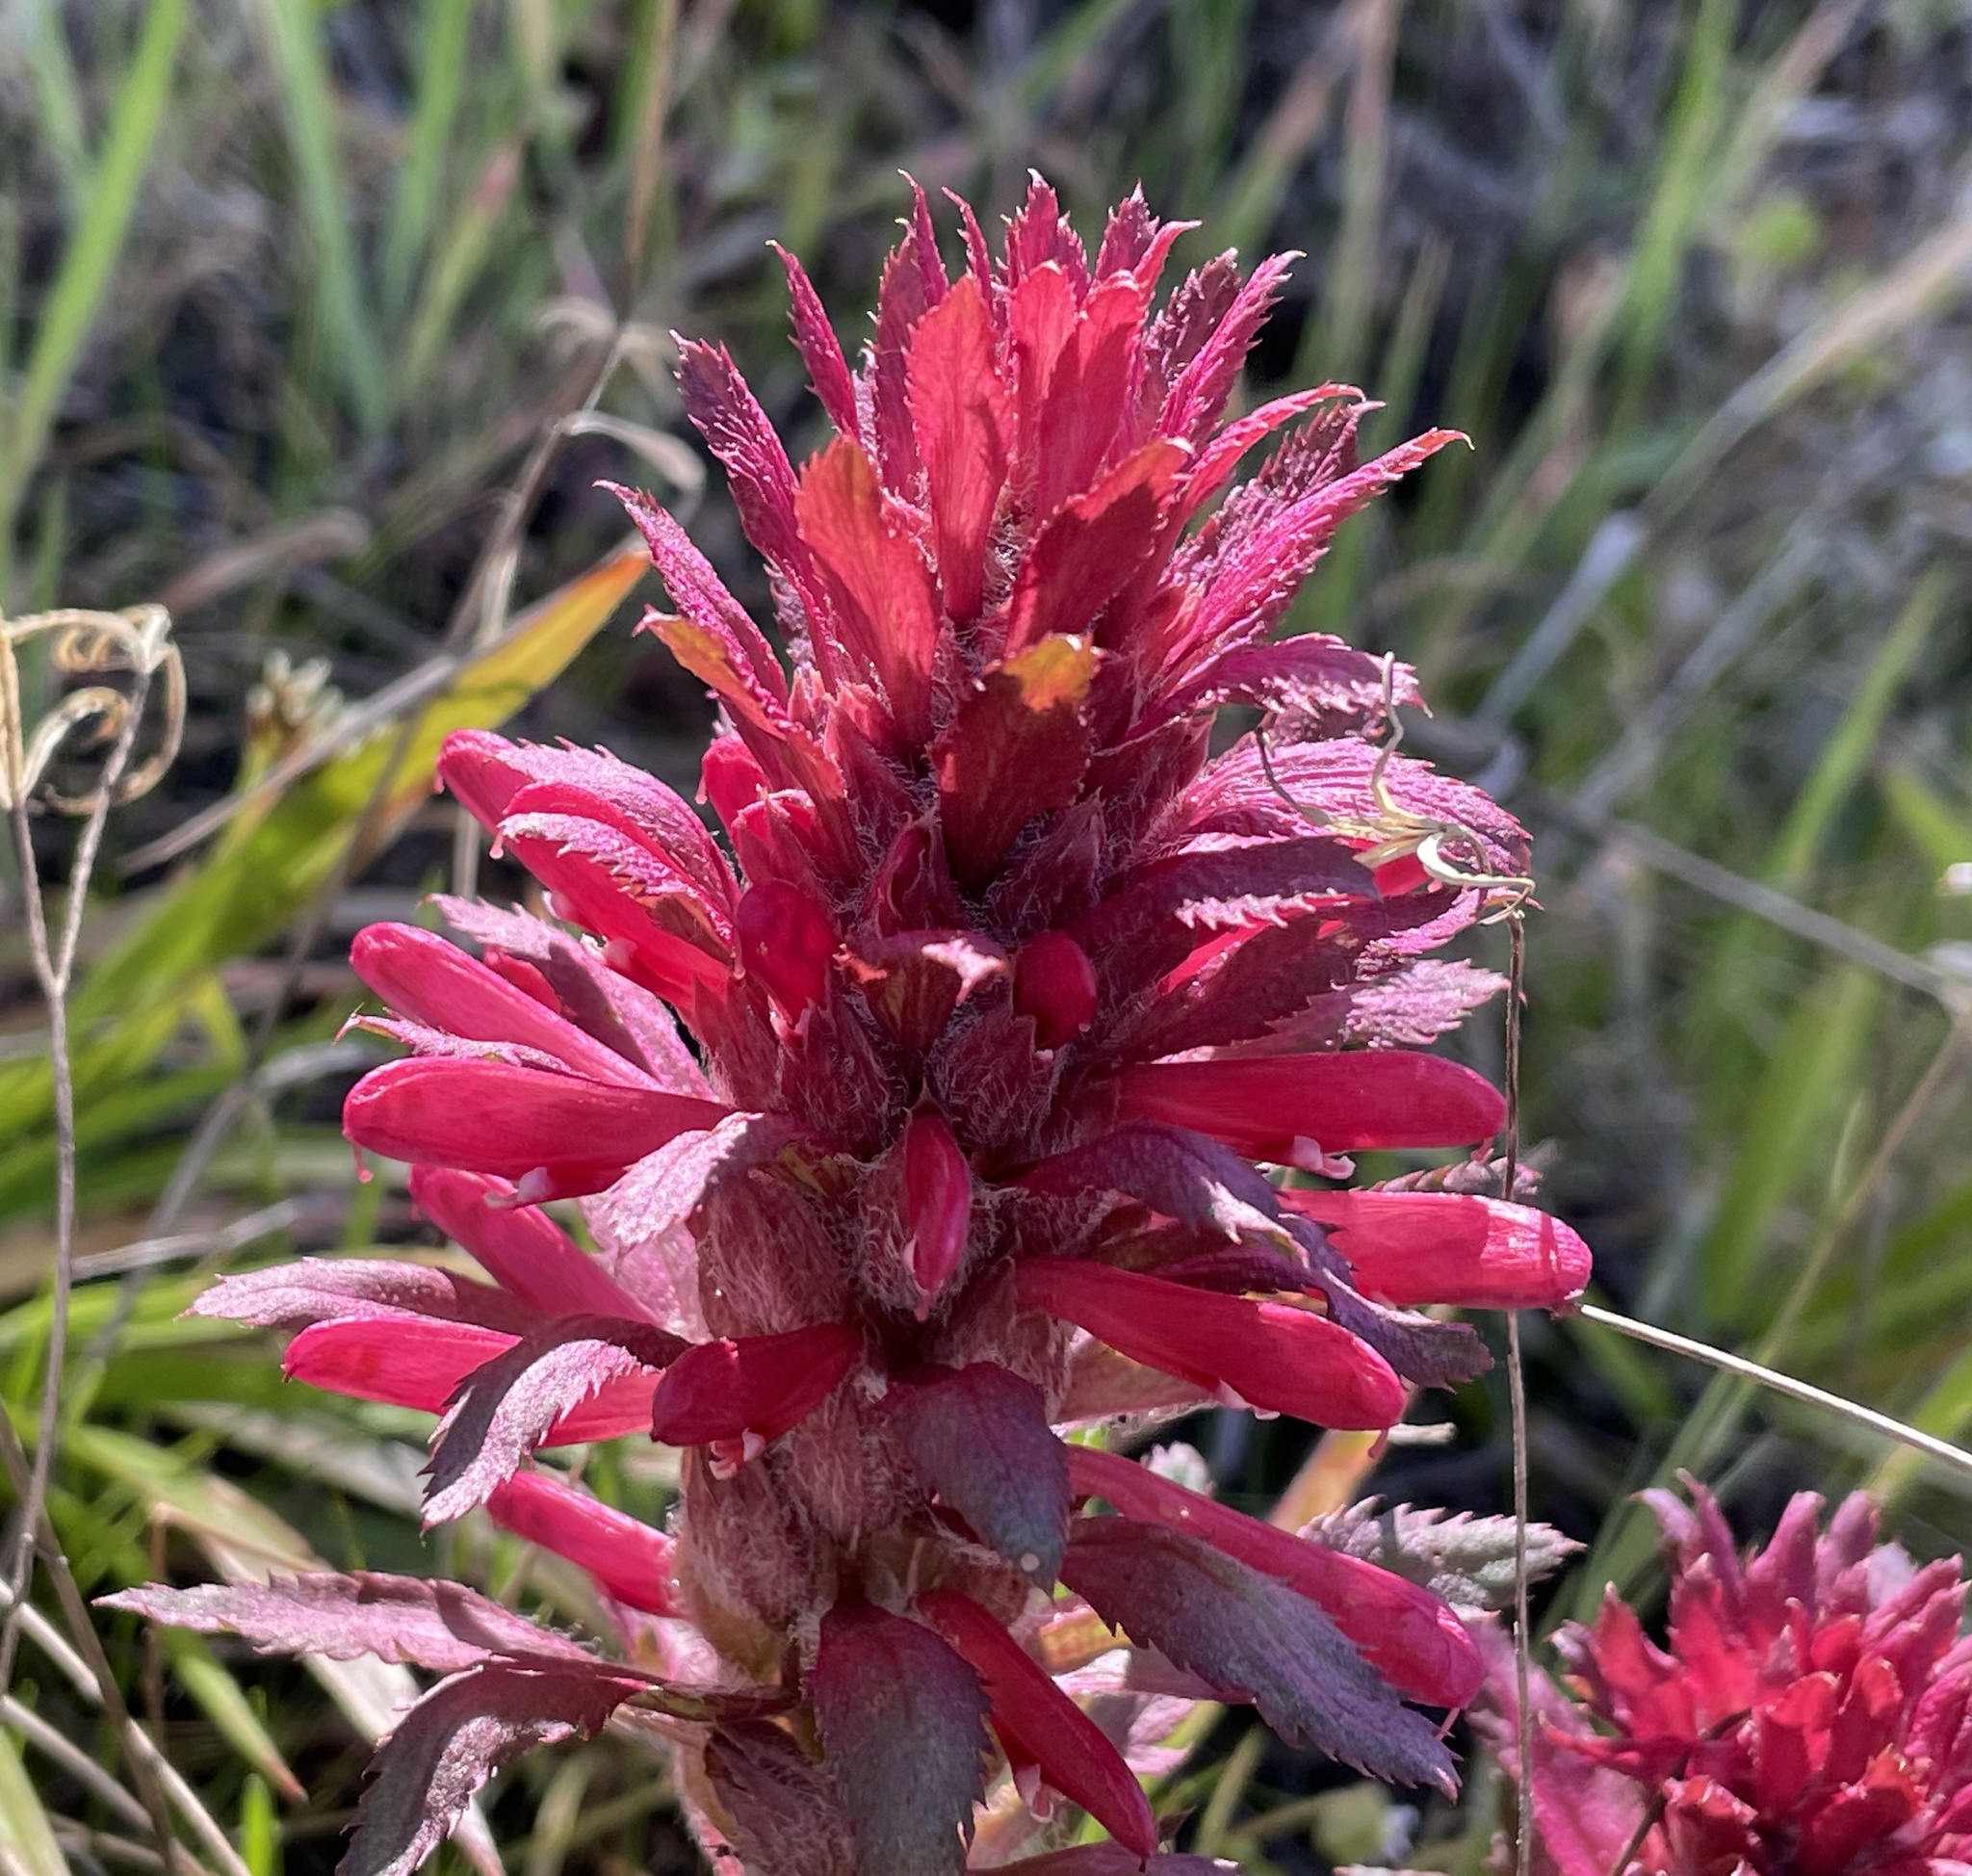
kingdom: Plantae
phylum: Tracheophyta
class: Magnoliopsida
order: Lamiales
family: Orobanchaceae
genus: Pedicularis
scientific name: Pedicularis densiflora
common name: Indian warrior
